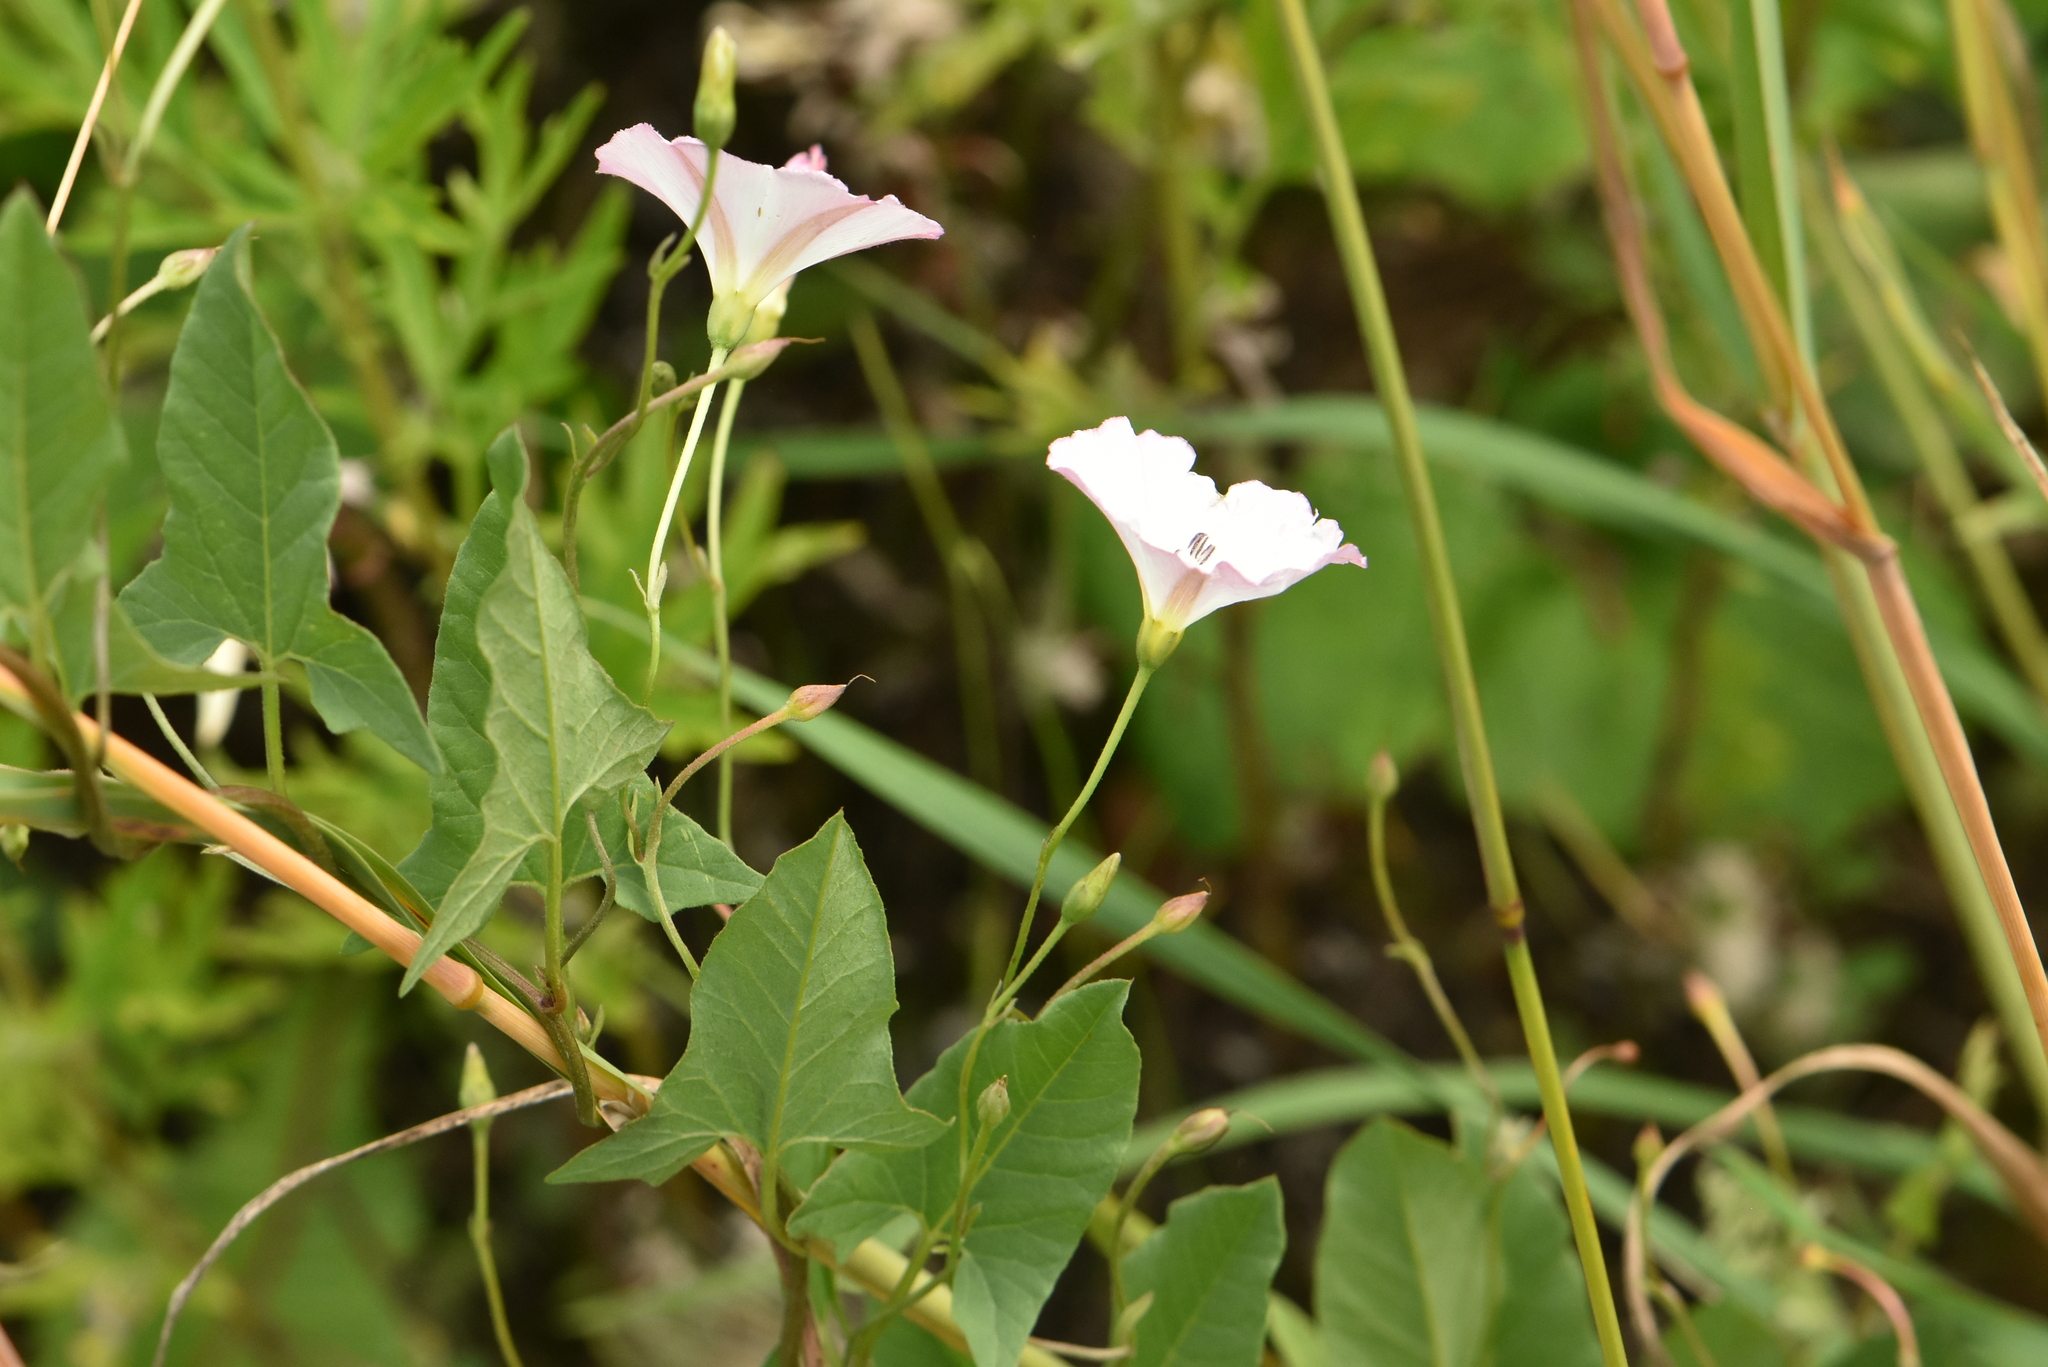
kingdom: Plantae
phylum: Tracheophyta
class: Magnoliopsida
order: Solanales
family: Convolvulaceae
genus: Convolvulus
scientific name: Convolvulus arvensis
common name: Field bindweed
